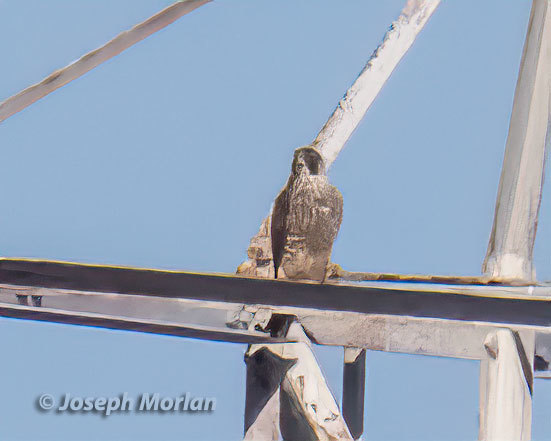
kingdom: Animalia
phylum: Chordata
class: Aves
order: Falconiformes
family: Falconidae
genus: Falco
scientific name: Falco peregrinus
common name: Peregrine falcon
